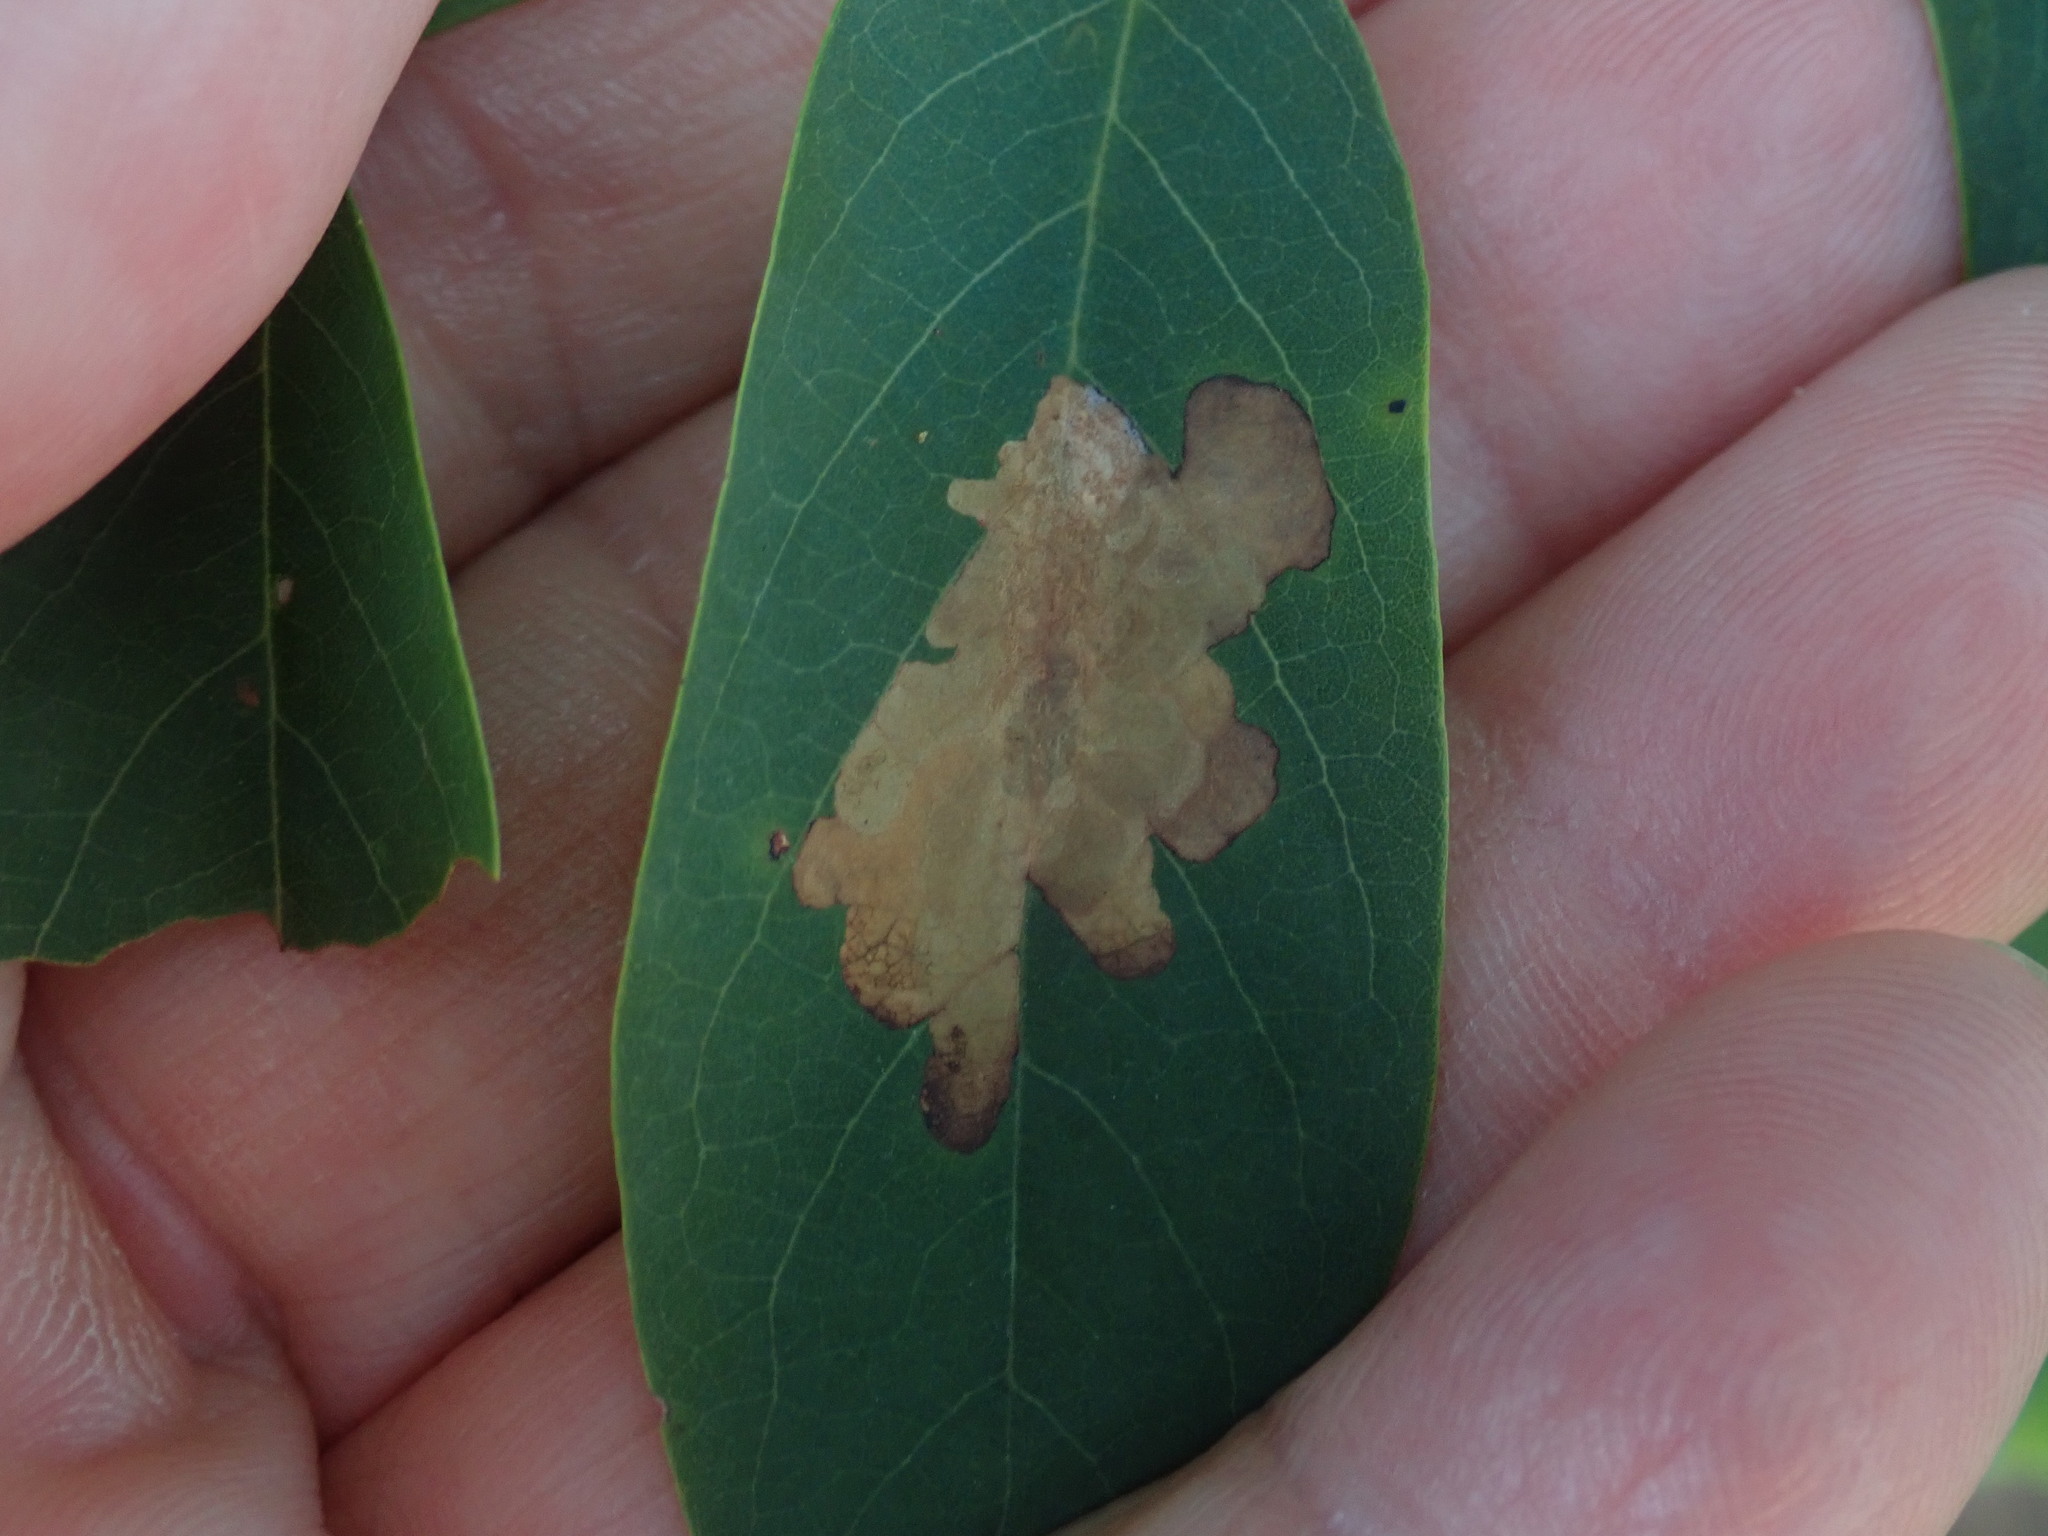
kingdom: Animalia
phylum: Arthropoda
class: Insecta
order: Lepidoptera
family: Gracillariidae
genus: Parectopa
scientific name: Parectopa robiniella
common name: Locust digitate leafminer
